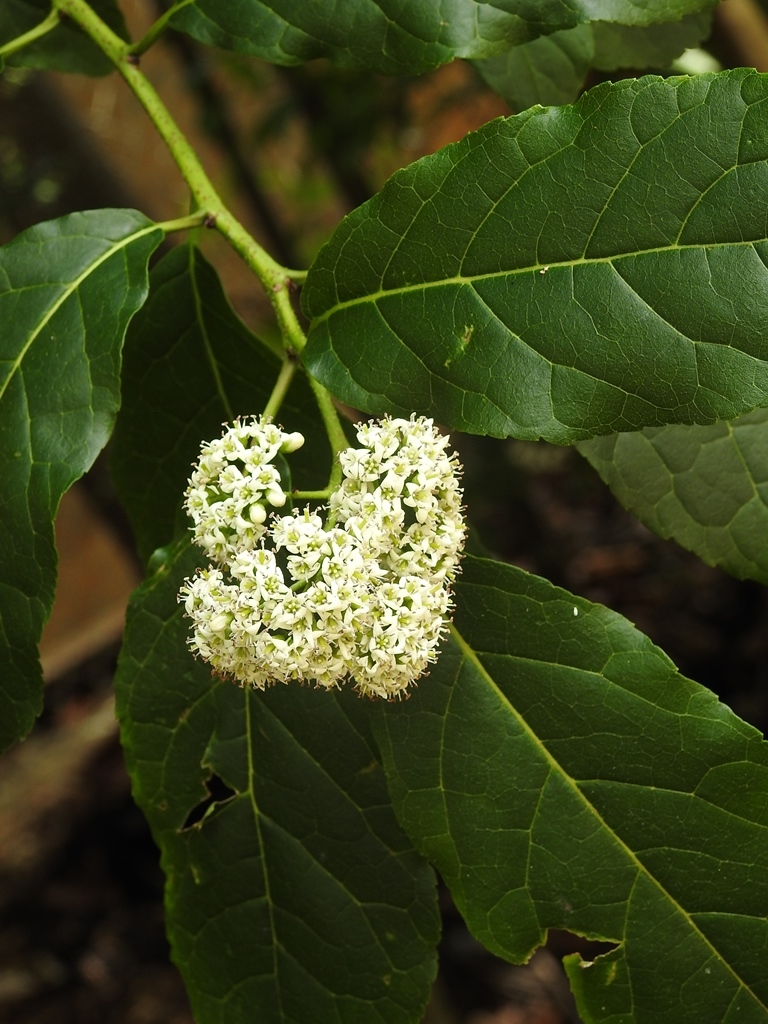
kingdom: Plantae
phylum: Tracheophyta
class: Magnoliopsida
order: Boraginales
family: Ehretiaceae
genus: Ehretia
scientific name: Ehretia latifolia
